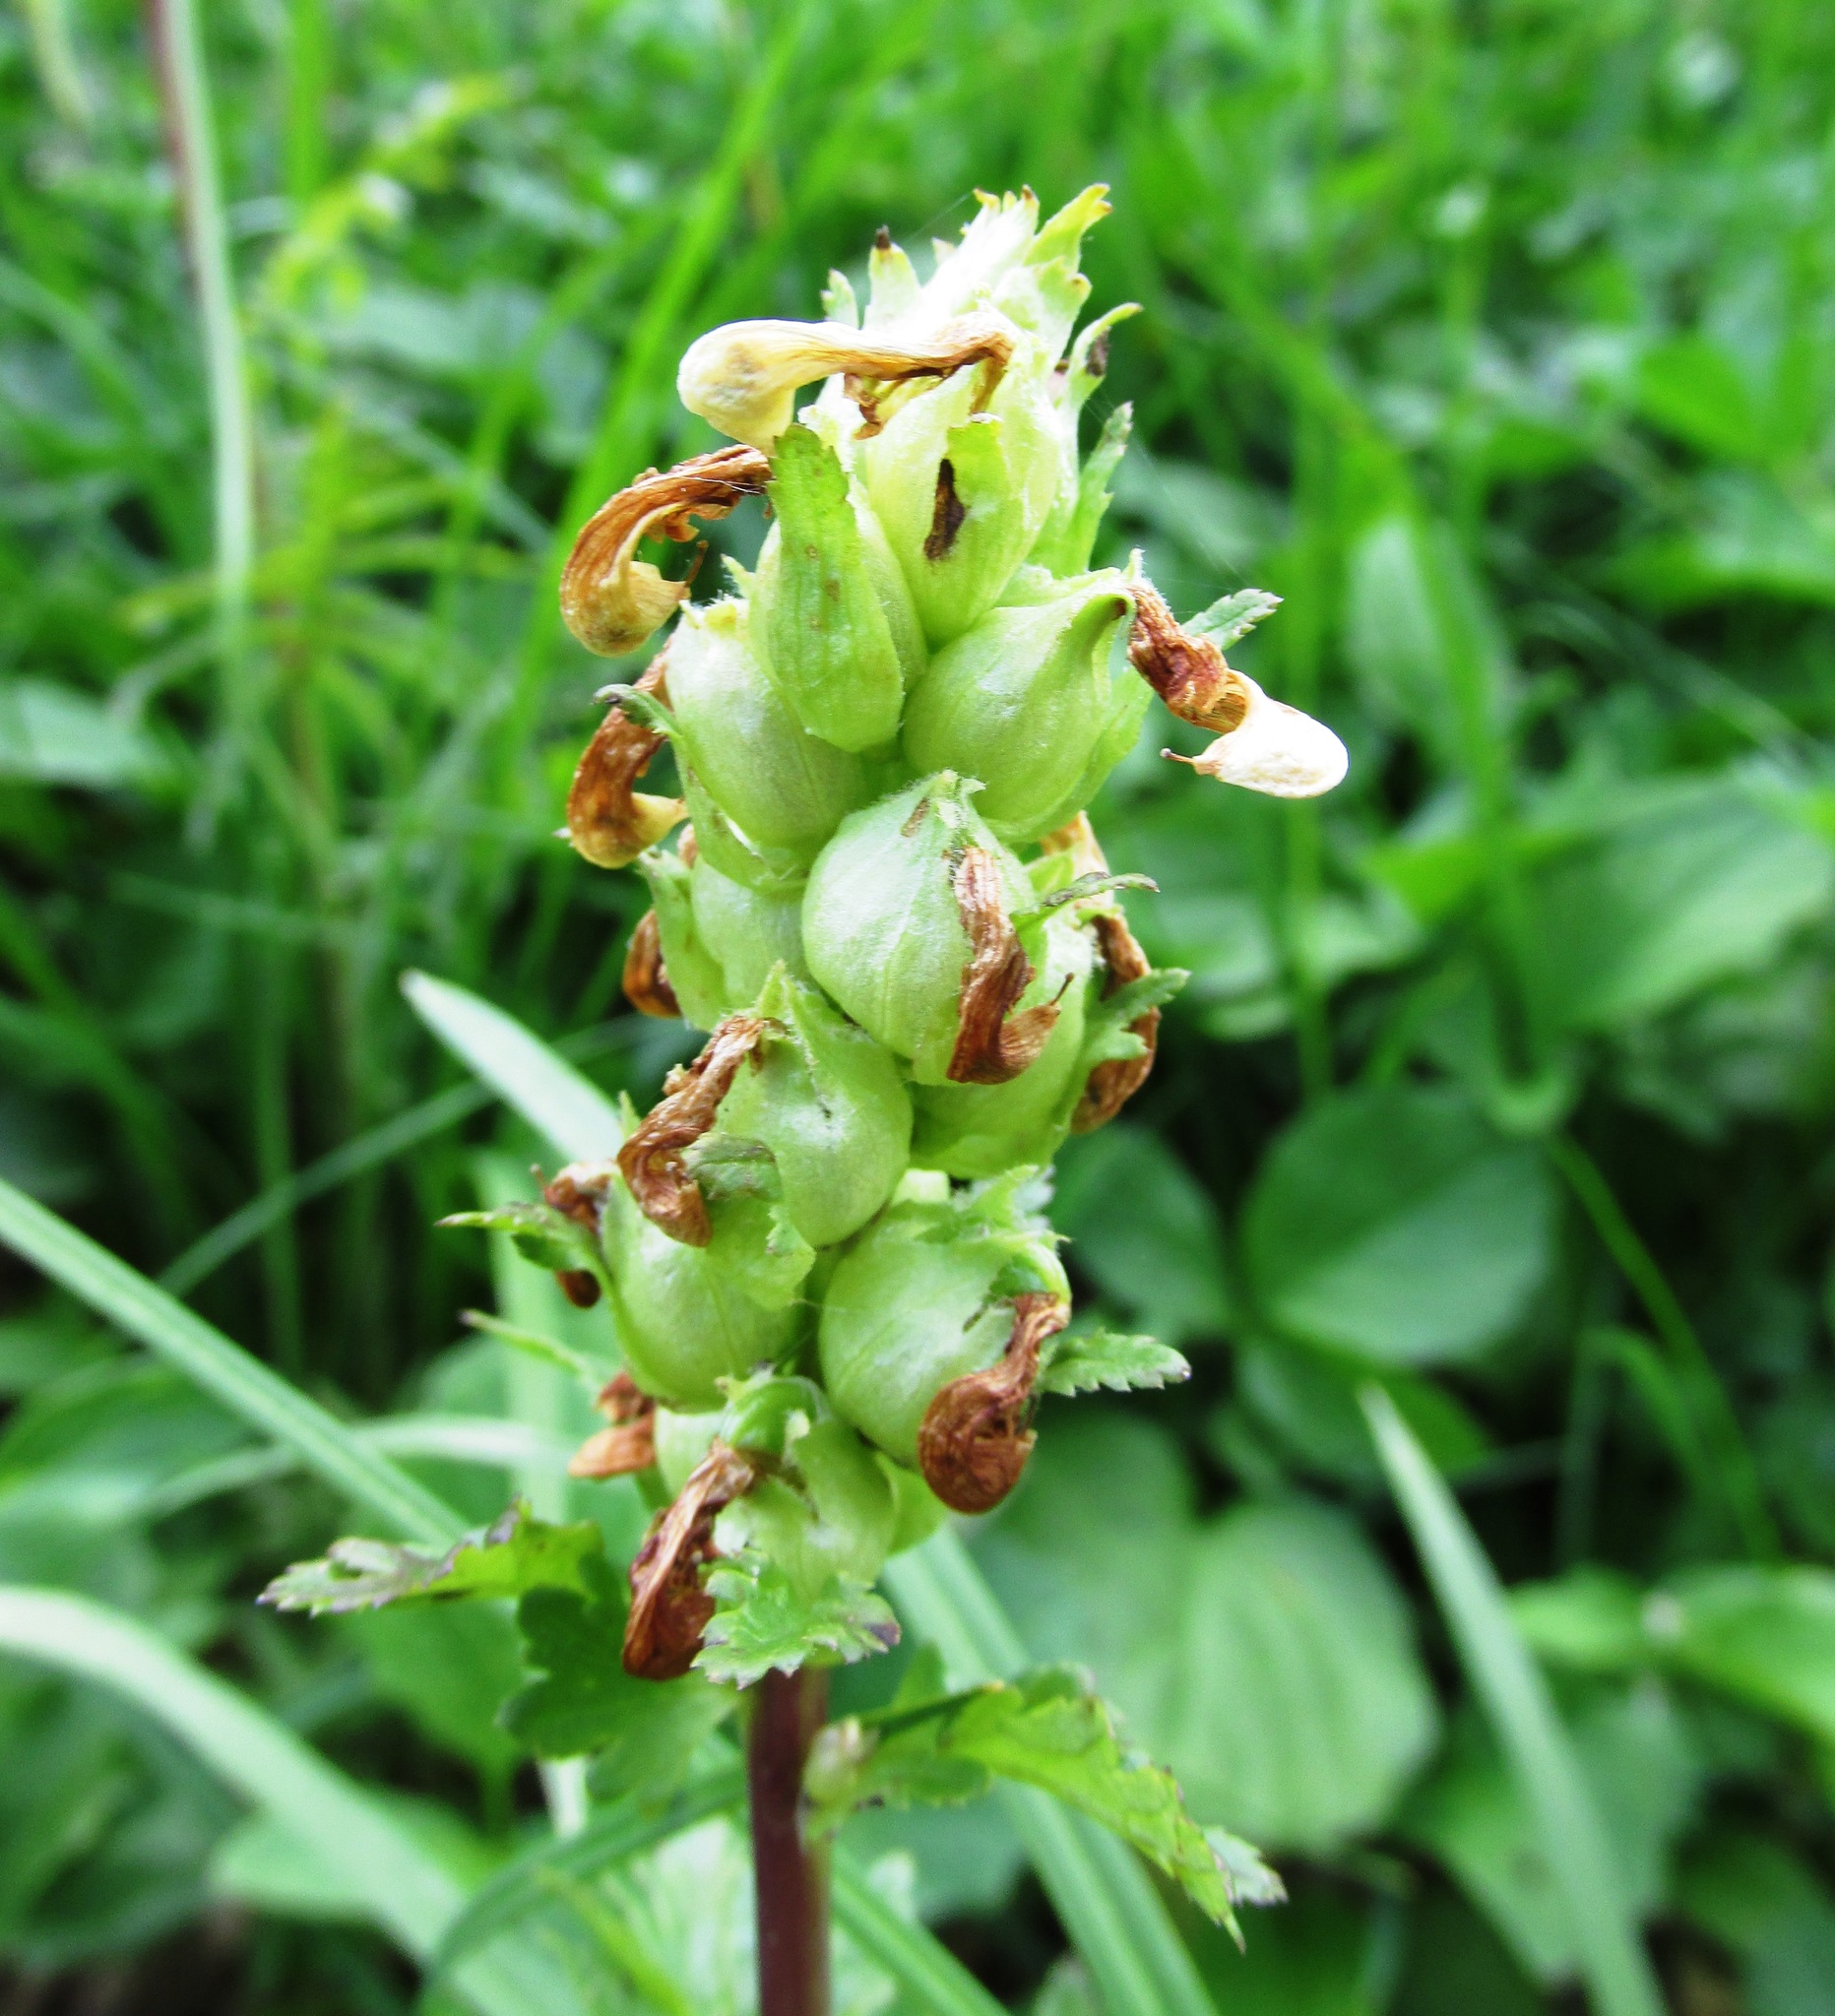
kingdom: Plantae
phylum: Tracheophyta
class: Magnoliopsida
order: Lamiales
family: Orobanchaceae
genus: Pedicularis
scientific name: Pedicularis bracteosa
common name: Bracted lousewort
